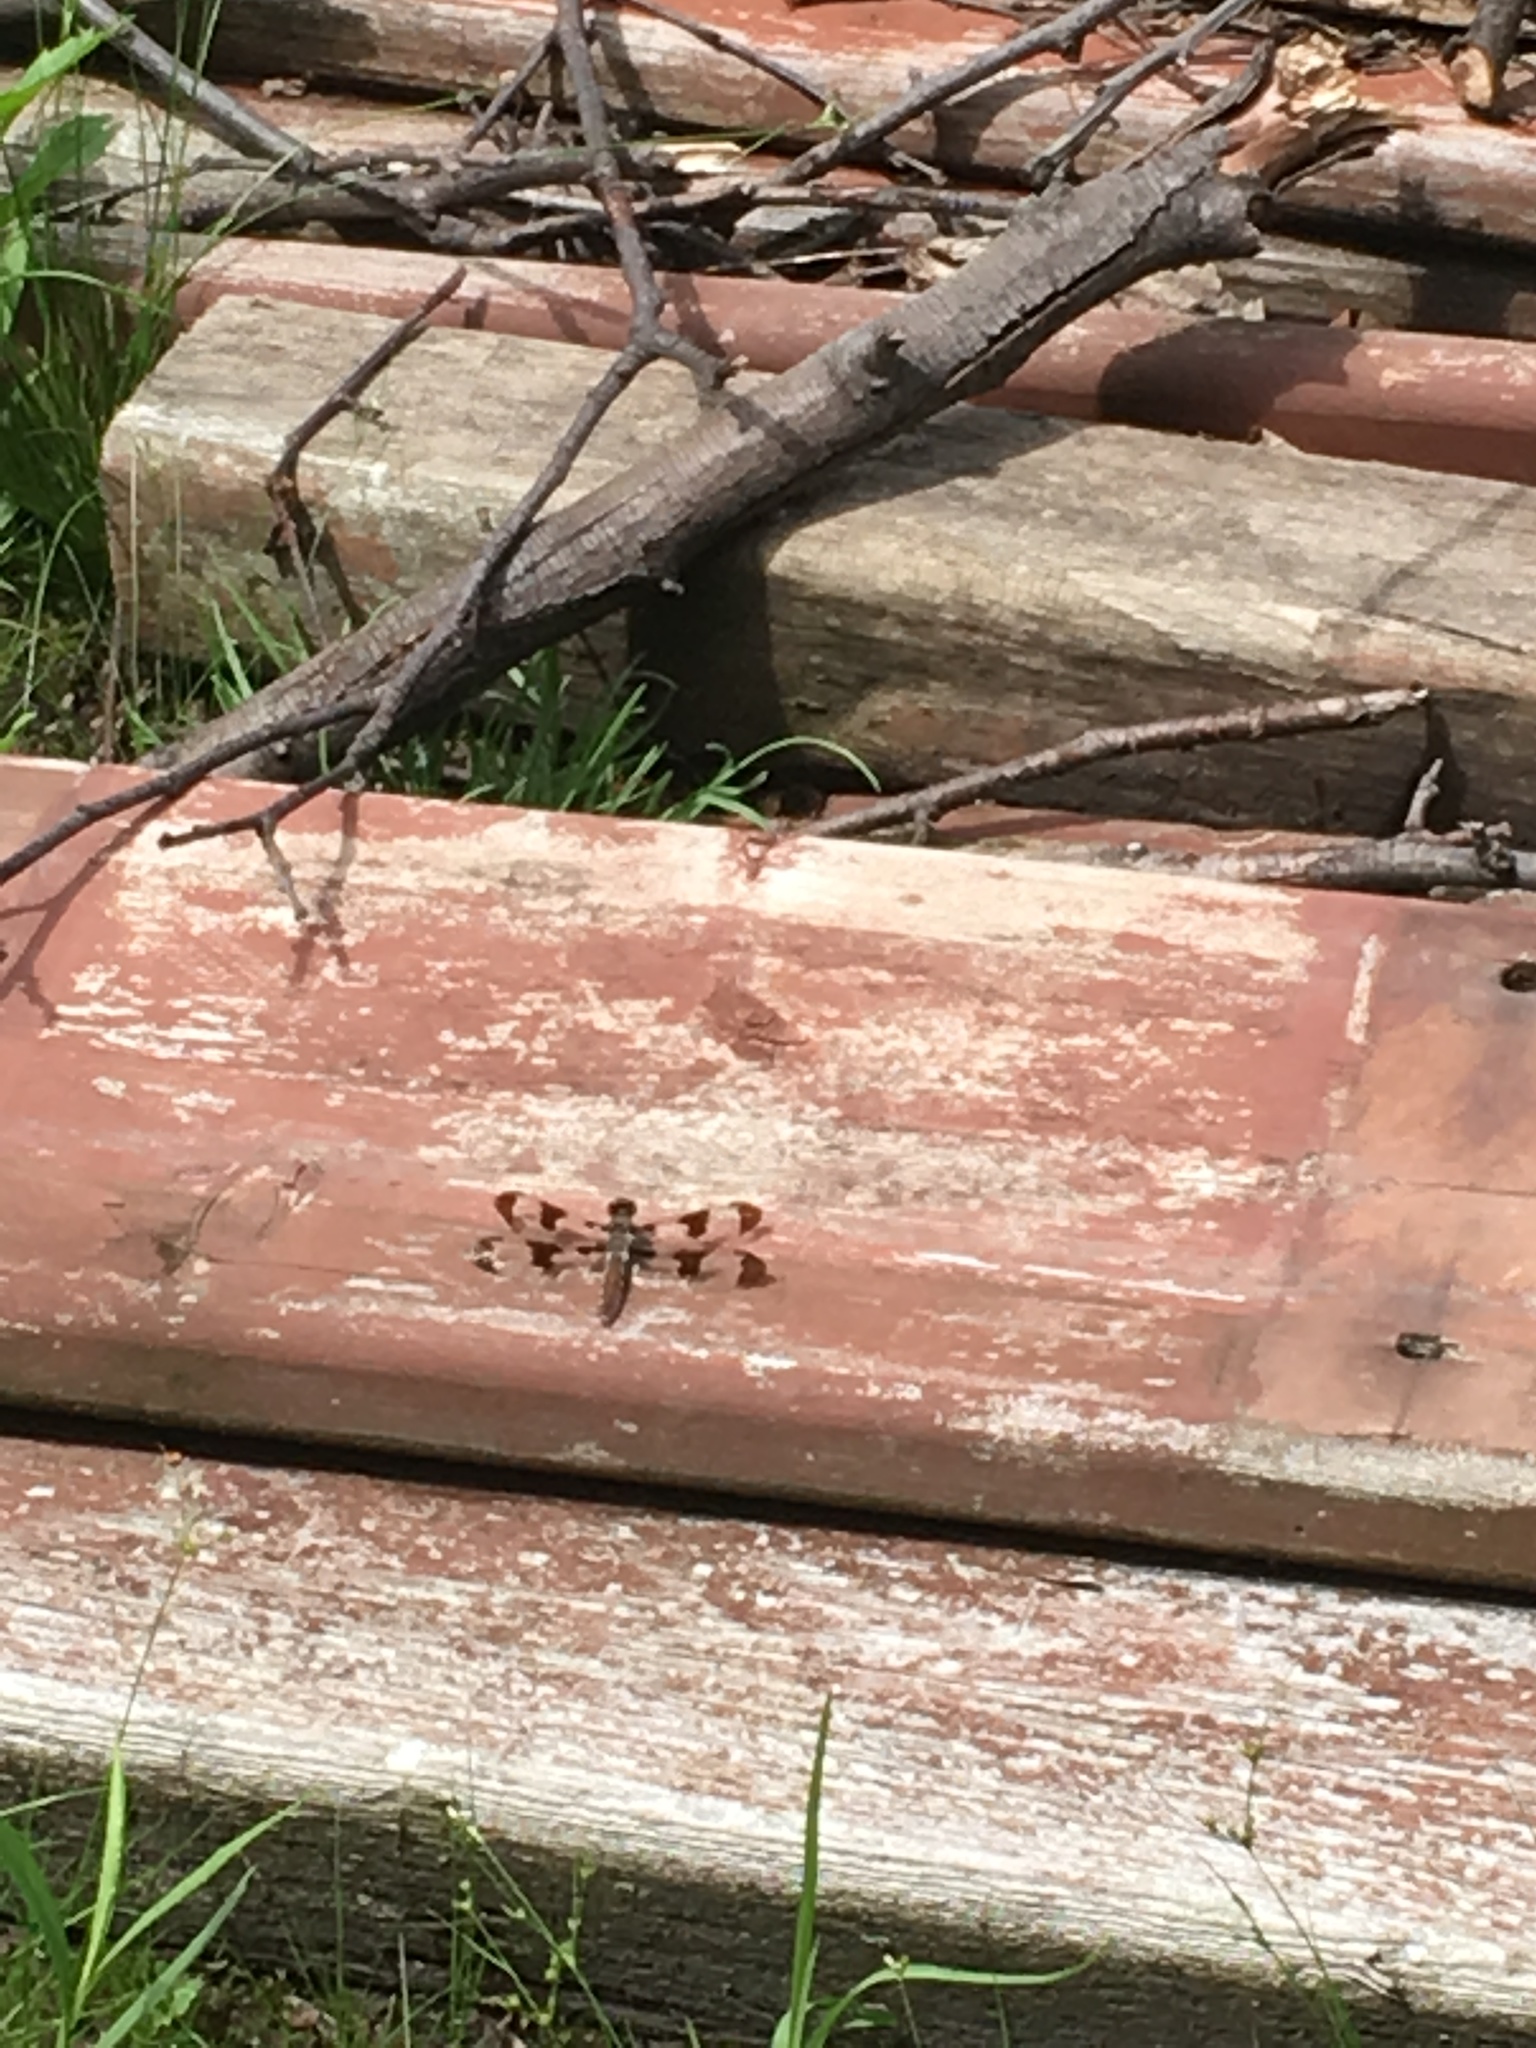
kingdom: Animalia
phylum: Arthropoda
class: Insecta
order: Odonata
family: Libellulidae
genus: Plathemis
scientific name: Plathemis lydia
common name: Common whitetail
